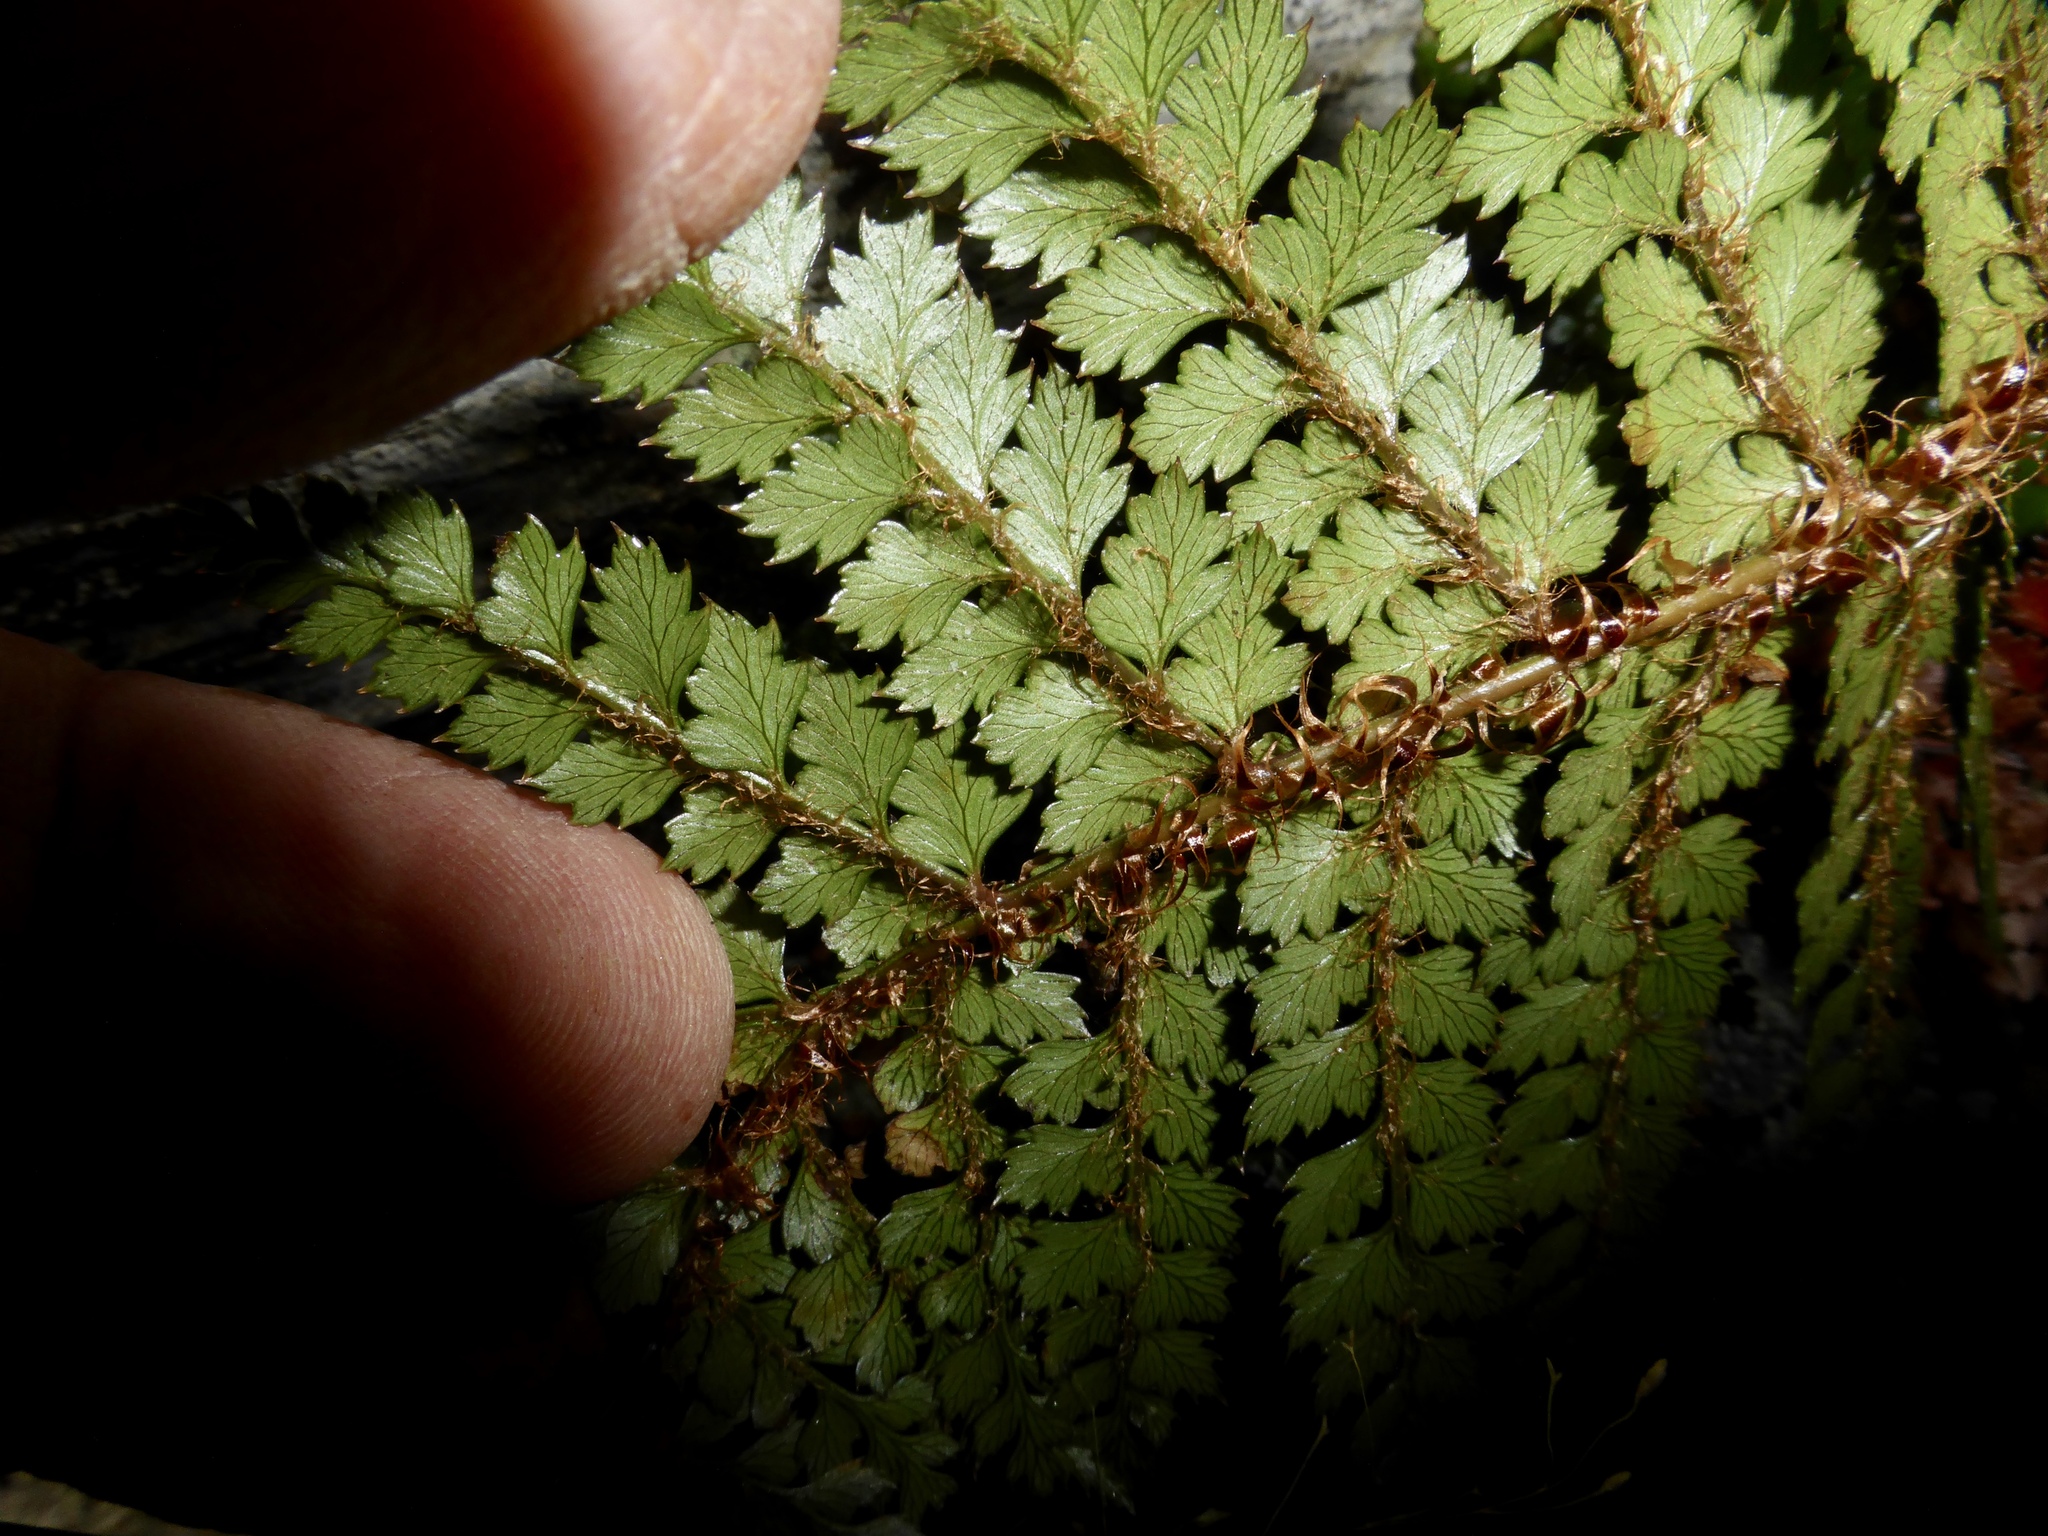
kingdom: Plantae
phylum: Tracheophyta
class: Polypodiopsida
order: Polypodiales
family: Dryopteridaceae
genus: Polystichum
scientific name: Polystichum vestitum
